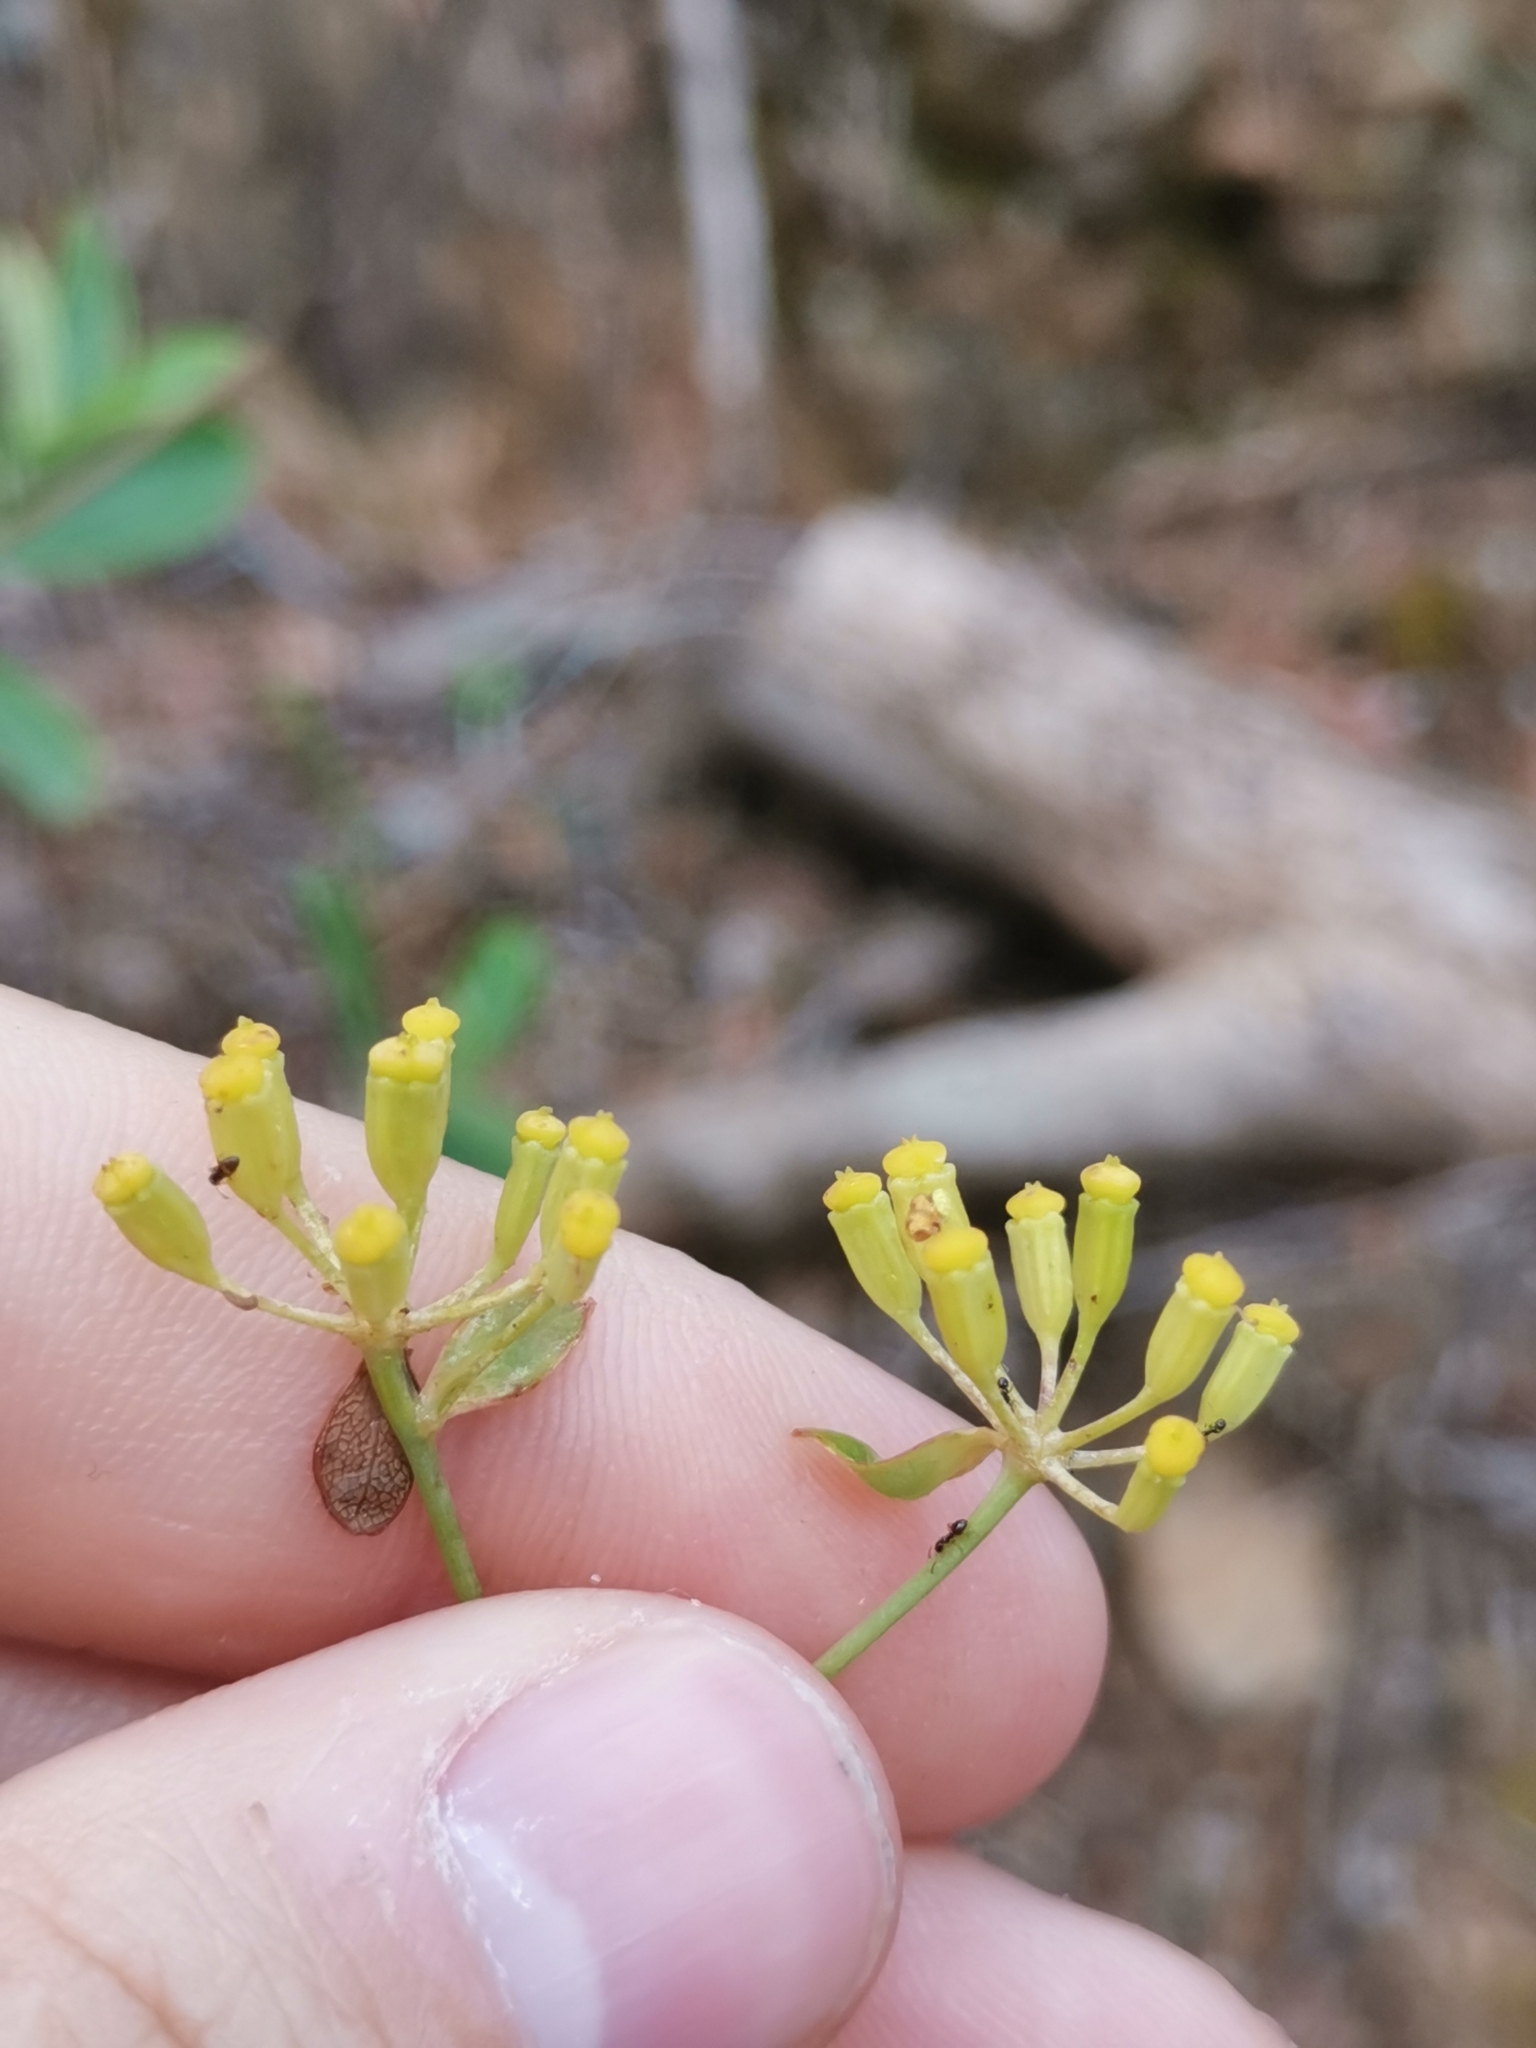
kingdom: Plantae
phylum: Tracheophyta
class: Magnoliopsida
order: Apiales
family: Apiaceae
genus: Bupleurum
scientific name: Bupleurum fruticosum
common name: Shrubby hare's-ear
